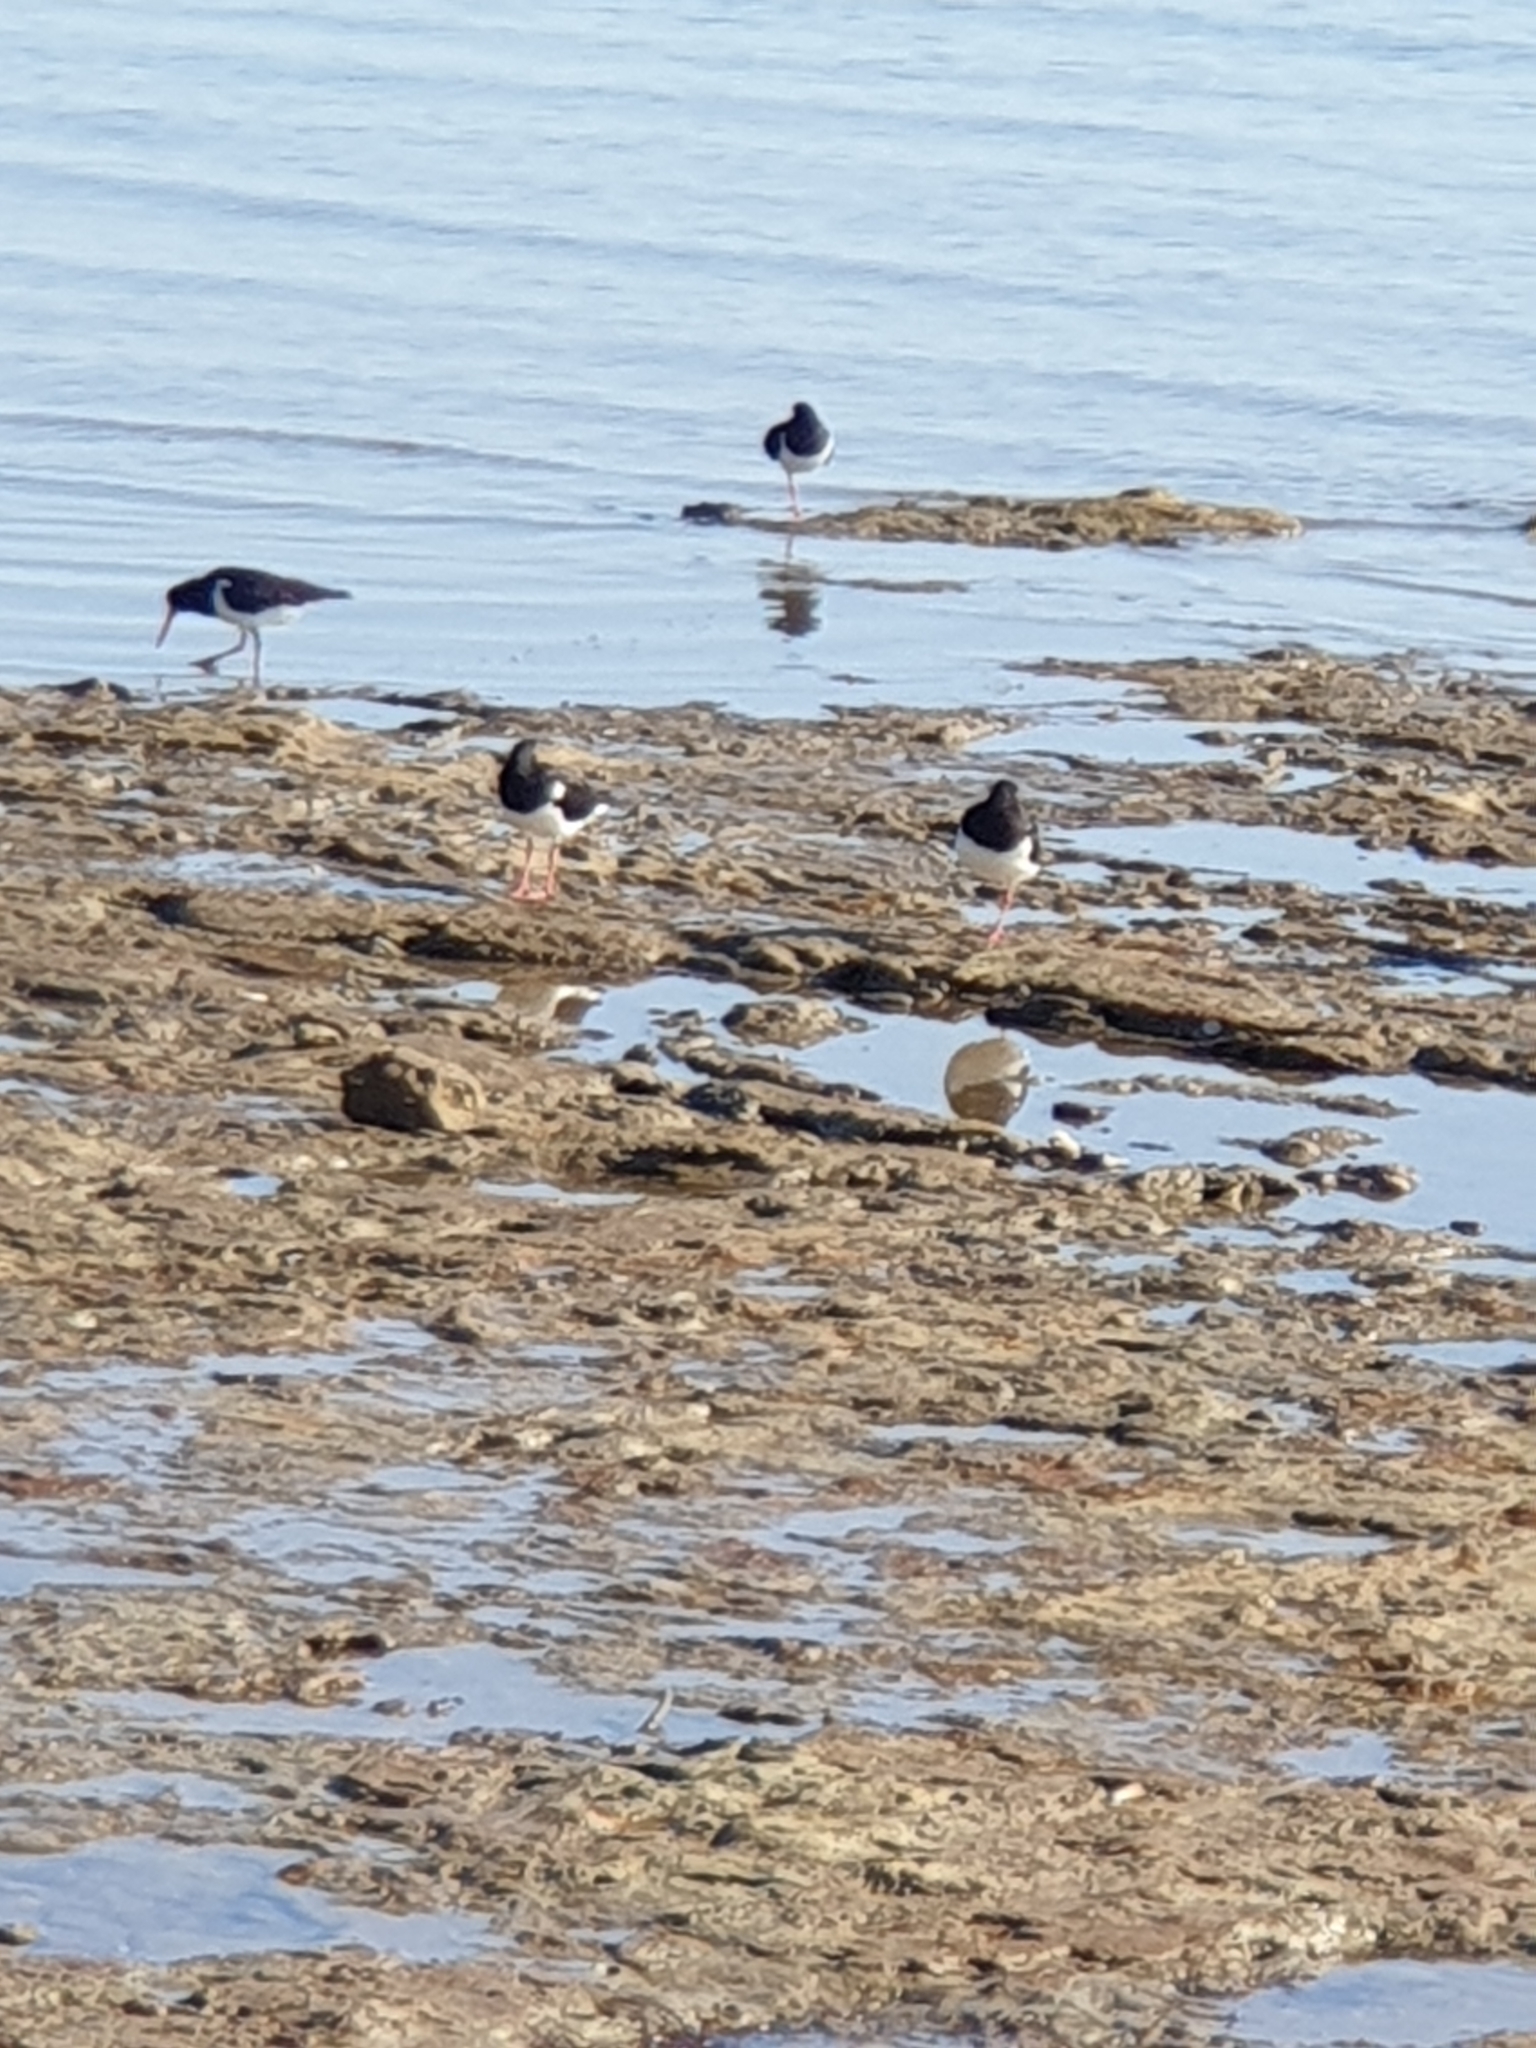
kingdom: Animalia
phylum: Chordata
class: Aves
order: Charadriiformes
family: Haematopodidae
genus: Haematopus
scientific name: Haematopus longirostris
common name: Pied oystercatcher
